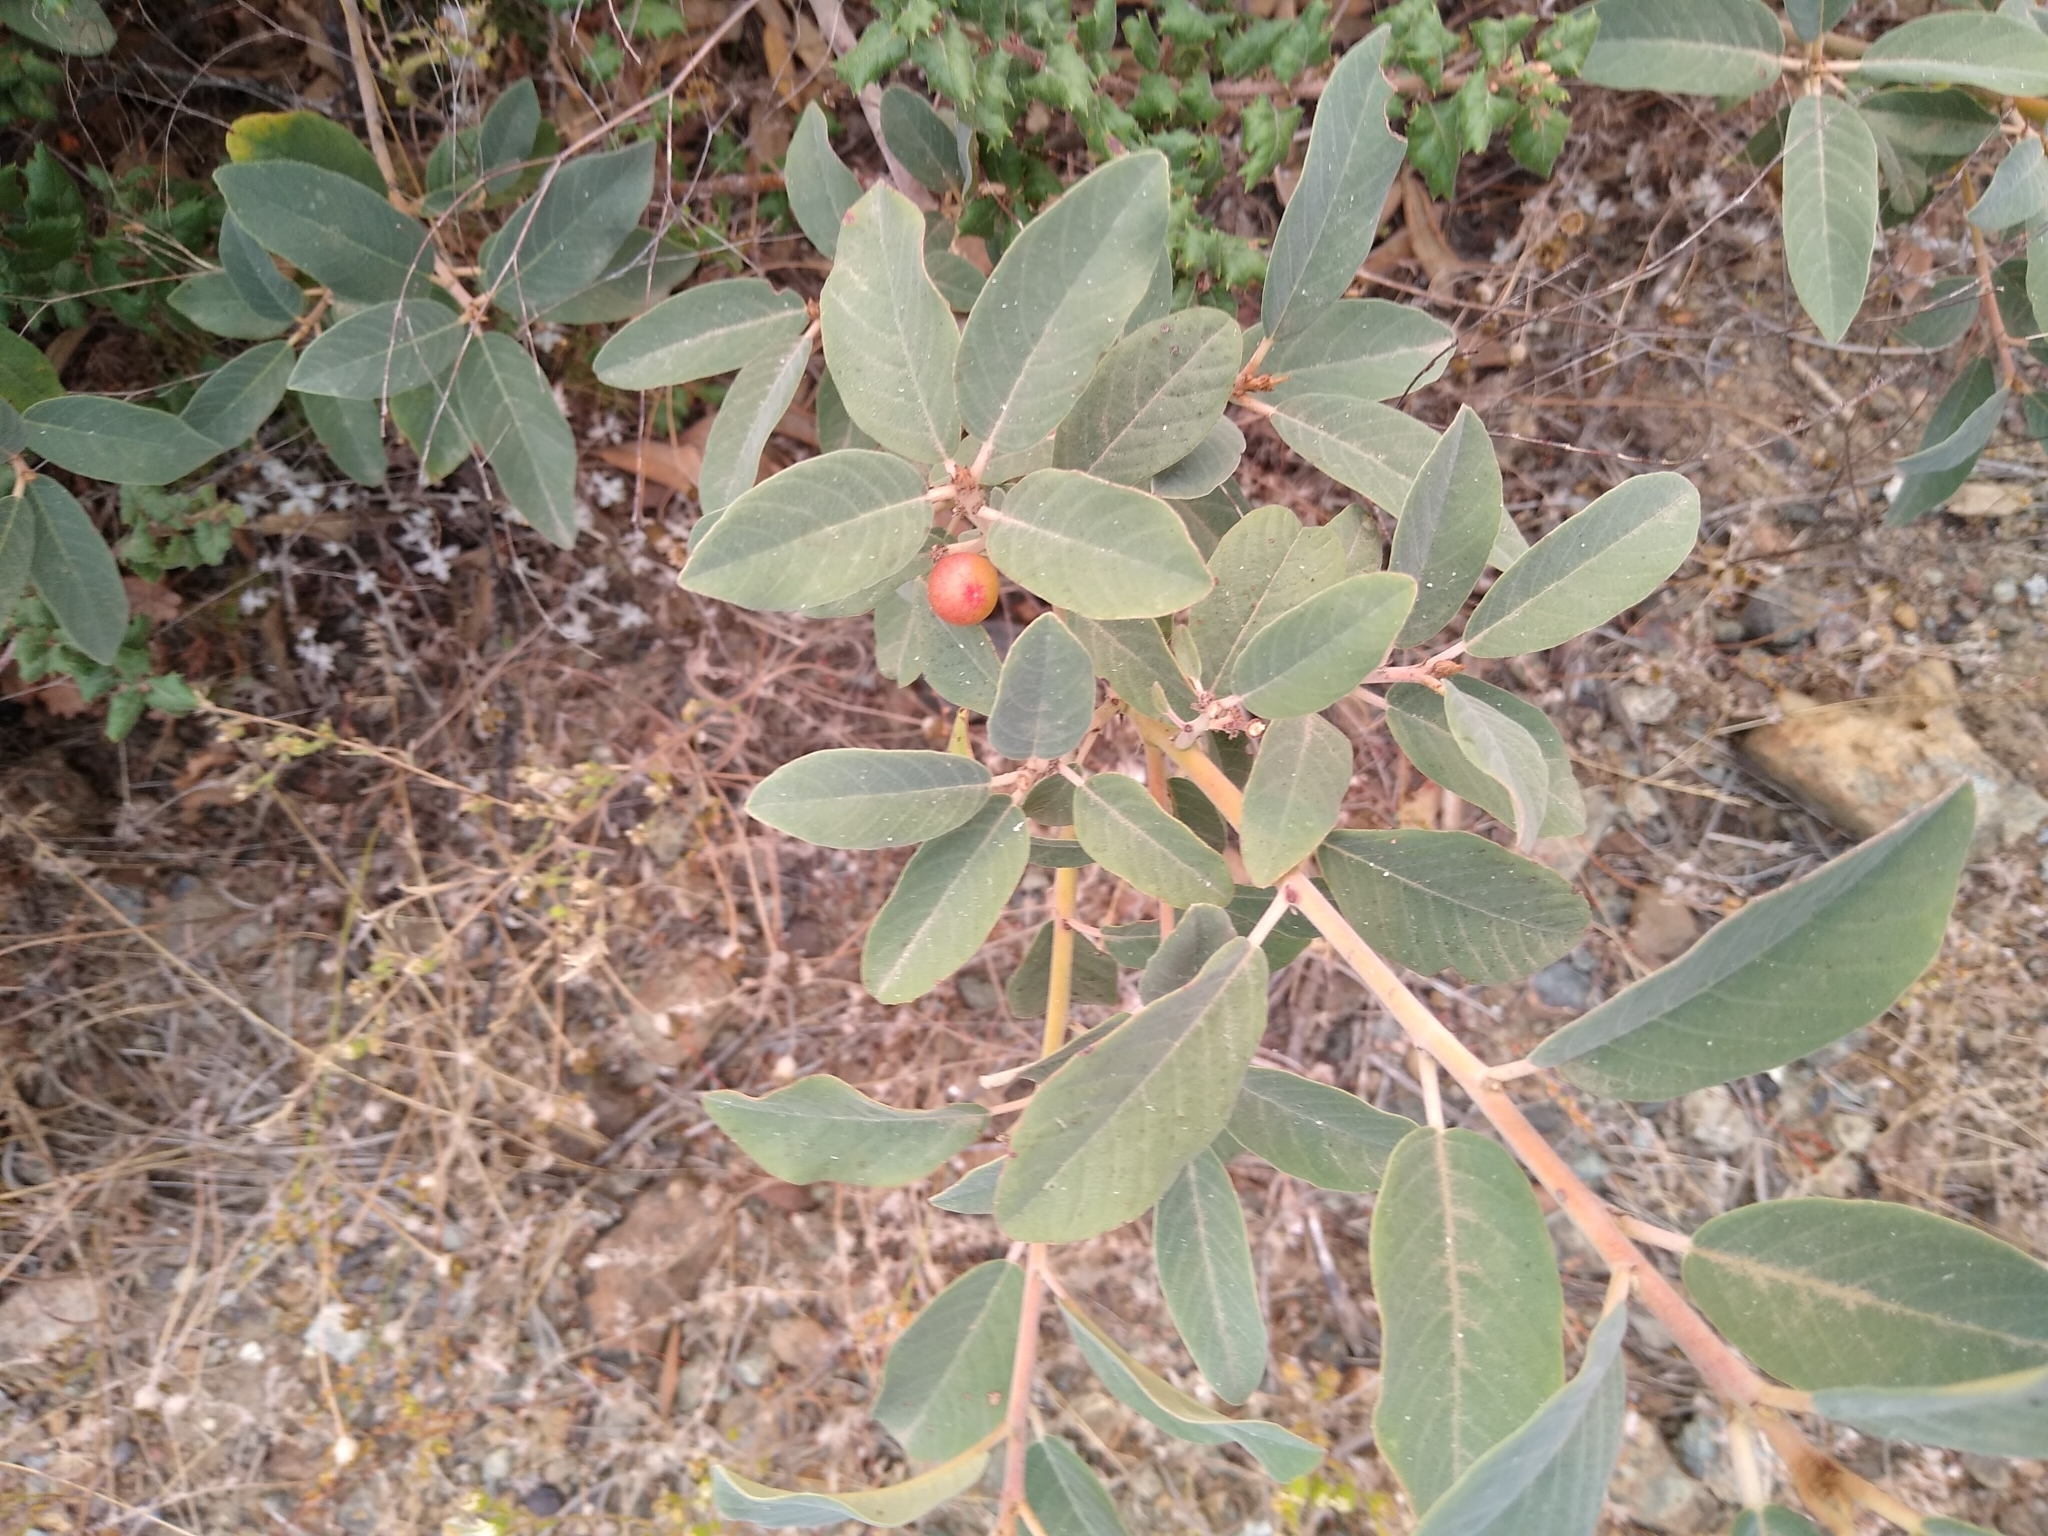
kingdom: Plantae
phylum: Tracheophyta
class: Magnoliopsida
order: Rosales
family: Rhamnaceae
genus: Frangula
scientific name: Frangula californica
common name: California buckthorn
